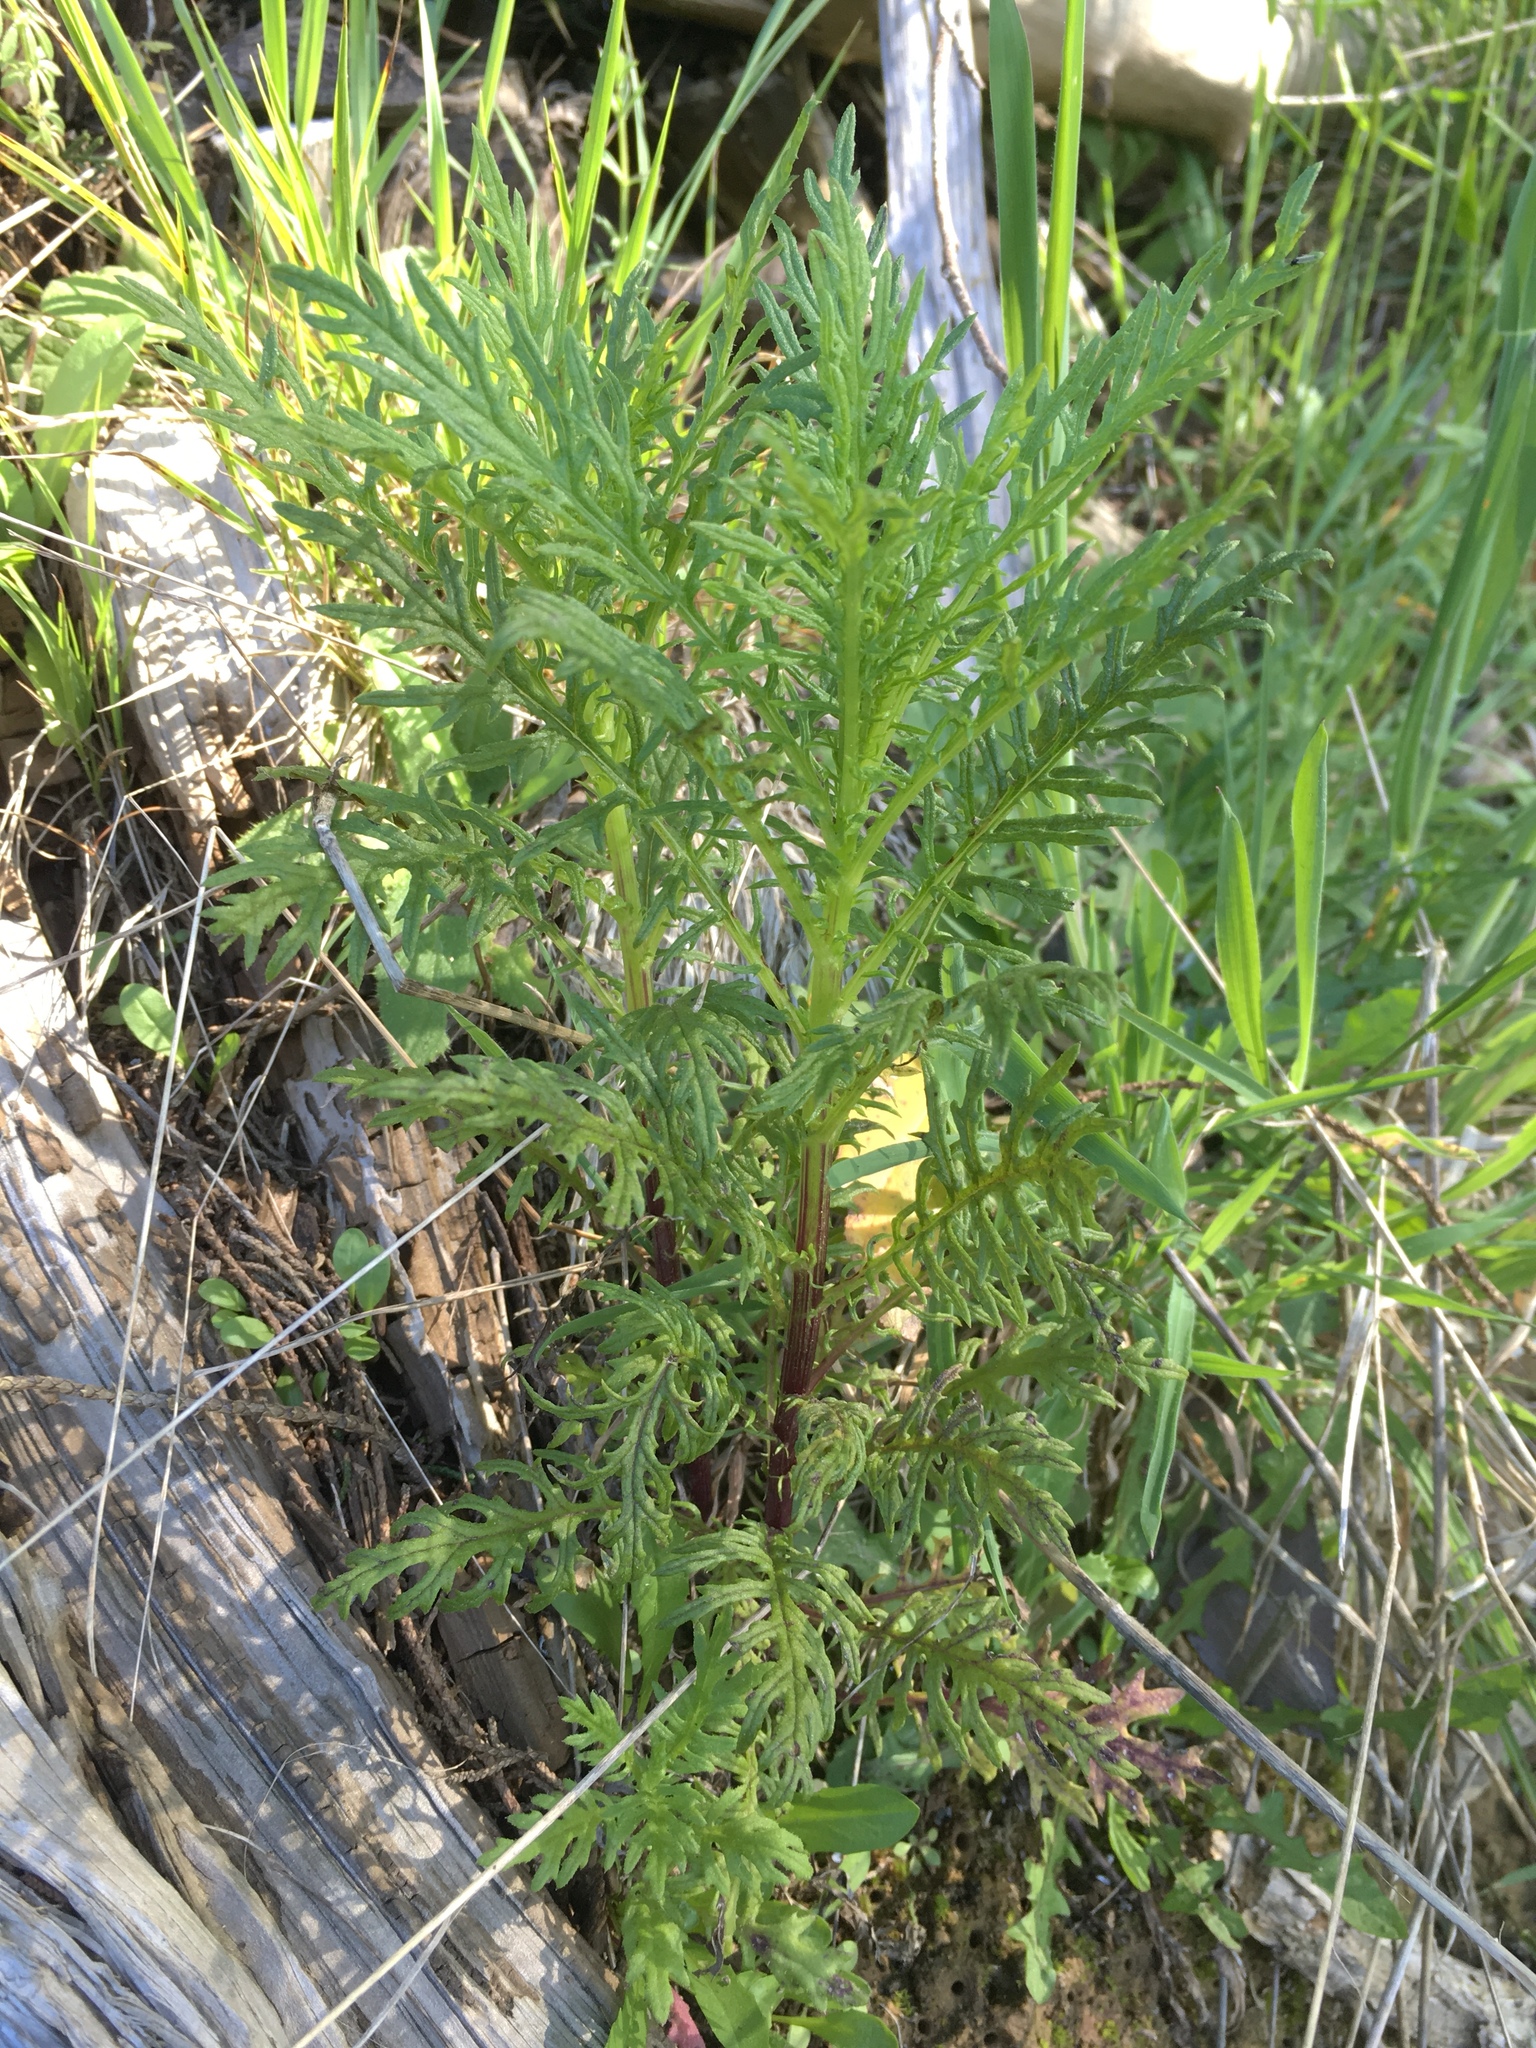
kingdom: Plantae
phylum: Tracheophyta
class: Magnoliopsida
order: Asterales
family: Asteraceae
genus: Senecio
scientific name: Senecio bipinnatisectus
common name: Australian fireweed
